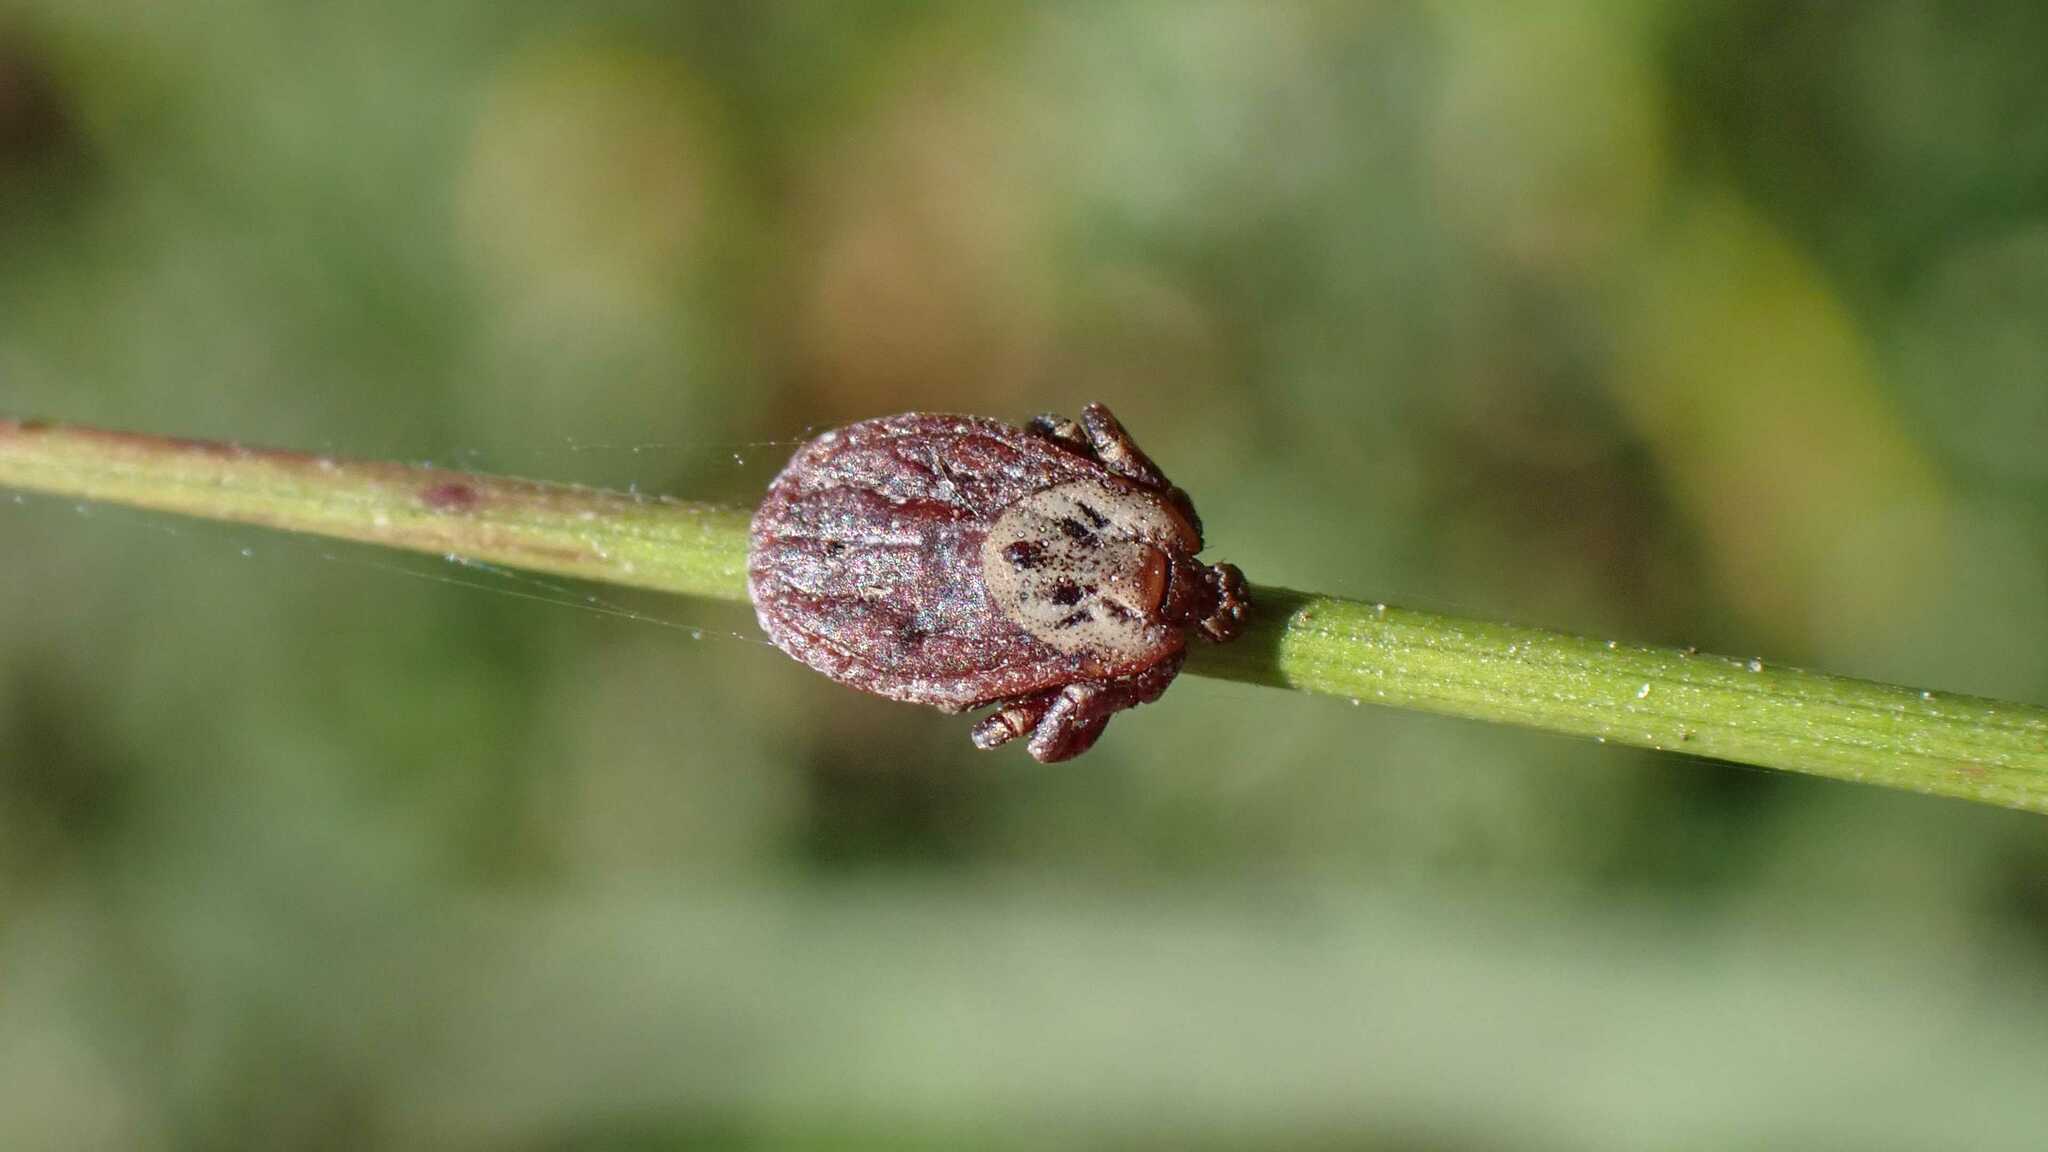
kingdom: Animalia
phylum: Arthropoda
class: Arachnida
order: Ixodida
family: Ixodidae
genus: Dermacentor
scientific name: Dermacentor reticulatus
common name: Ornate cow tick
